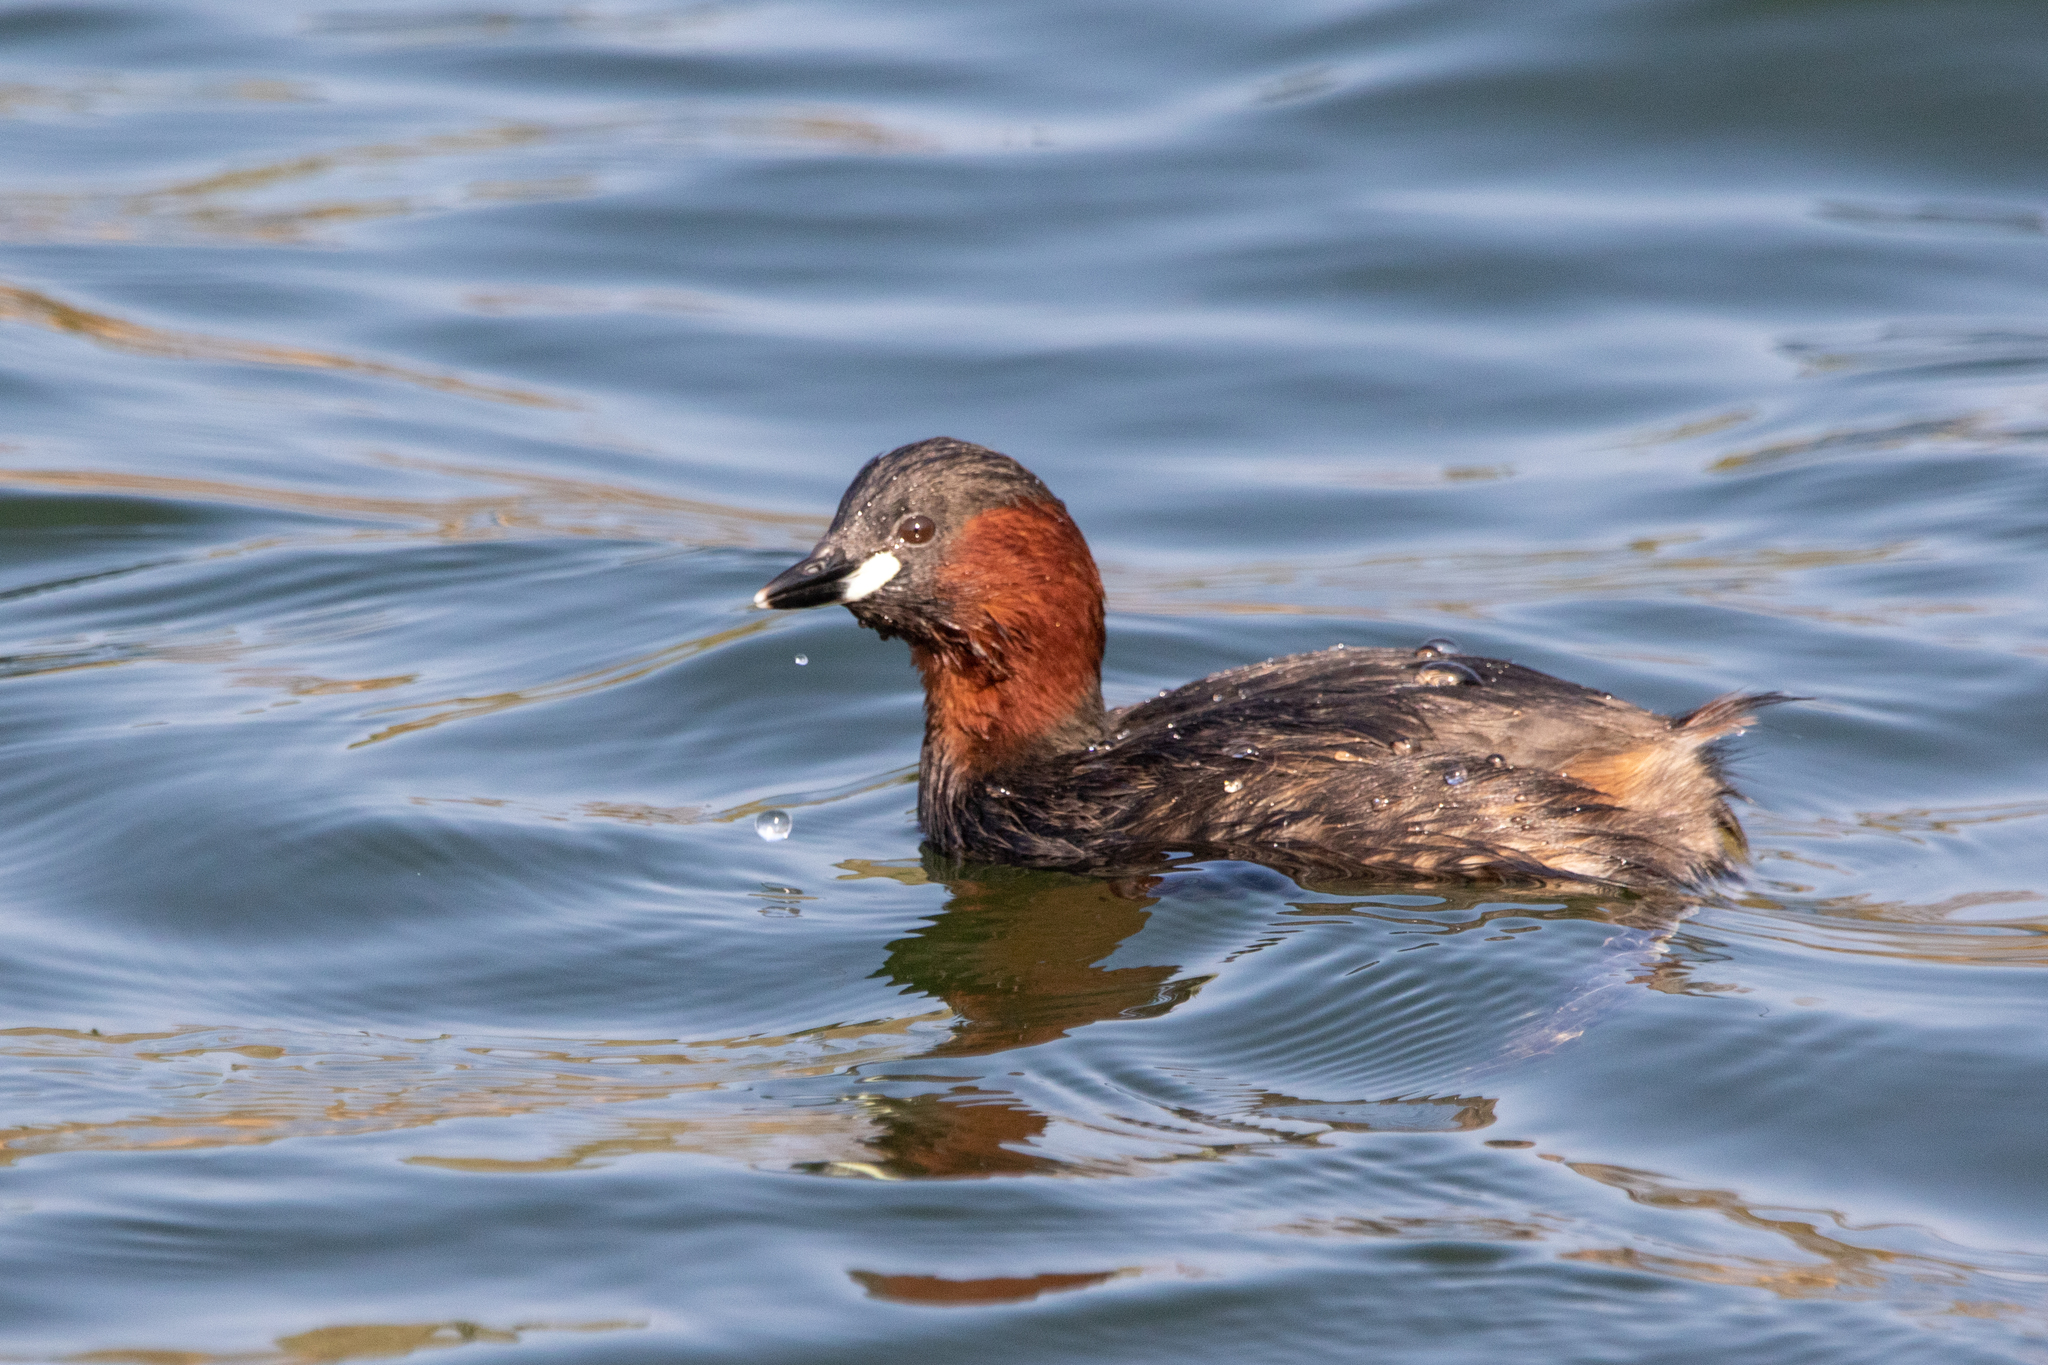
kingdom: Animalia
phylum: Chordata
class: Aves
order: Podicipediformes
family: Podicipedidae
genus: Tachybaptus
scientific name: Tachybaptus ruficollis
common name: Little grebe
